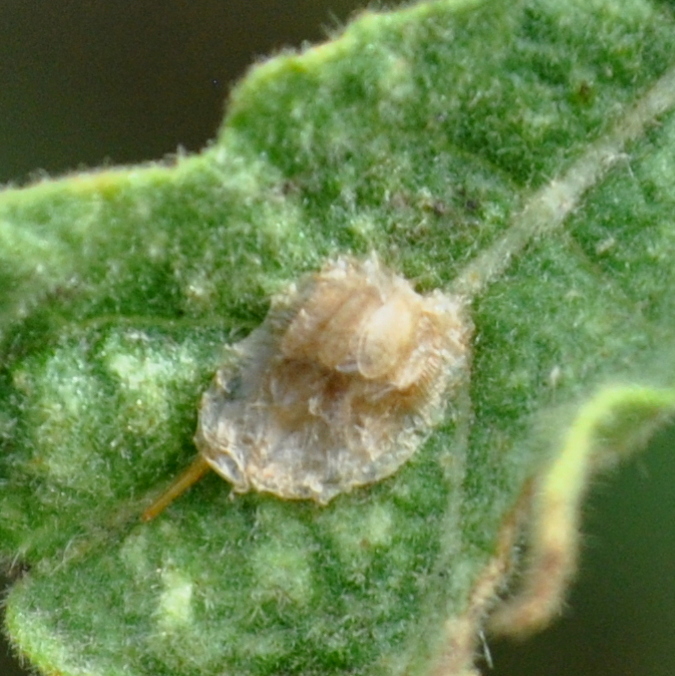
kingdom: Animalia
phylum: Arthropoda
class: Insecta
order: Coleoptera
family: Chrysomelidae
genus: Gratiana
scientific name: Gratiana boliviana
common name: Leaf beetle
